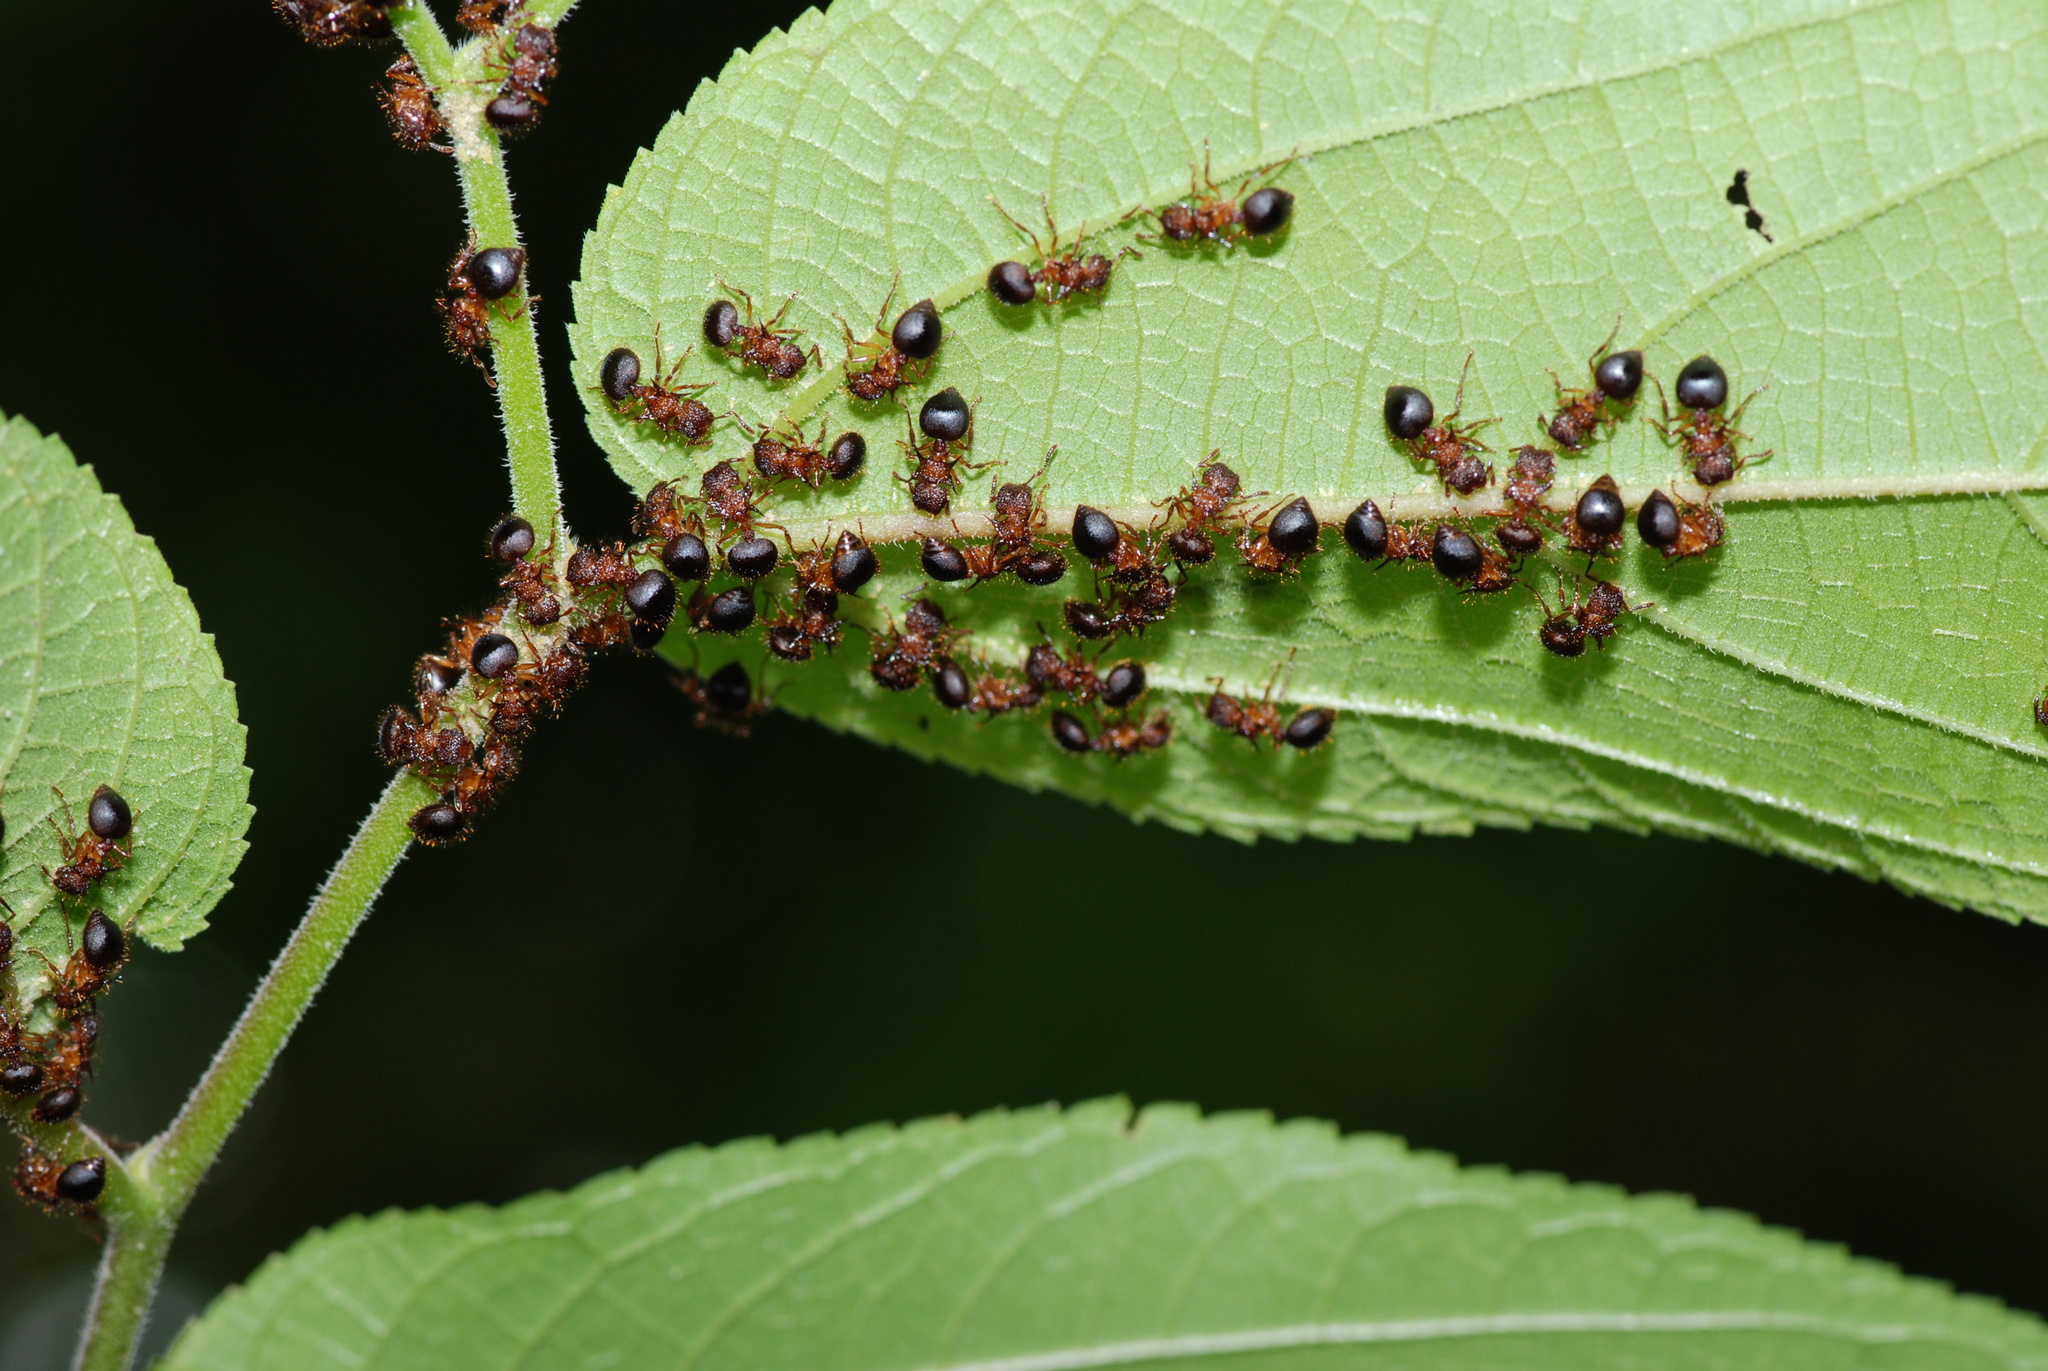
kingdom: Animalia
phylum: Arthropoda
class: Insecta
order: Hymenoptera
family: Formicidae
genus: Meranoplus
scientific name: Meranoplus mucronatus
